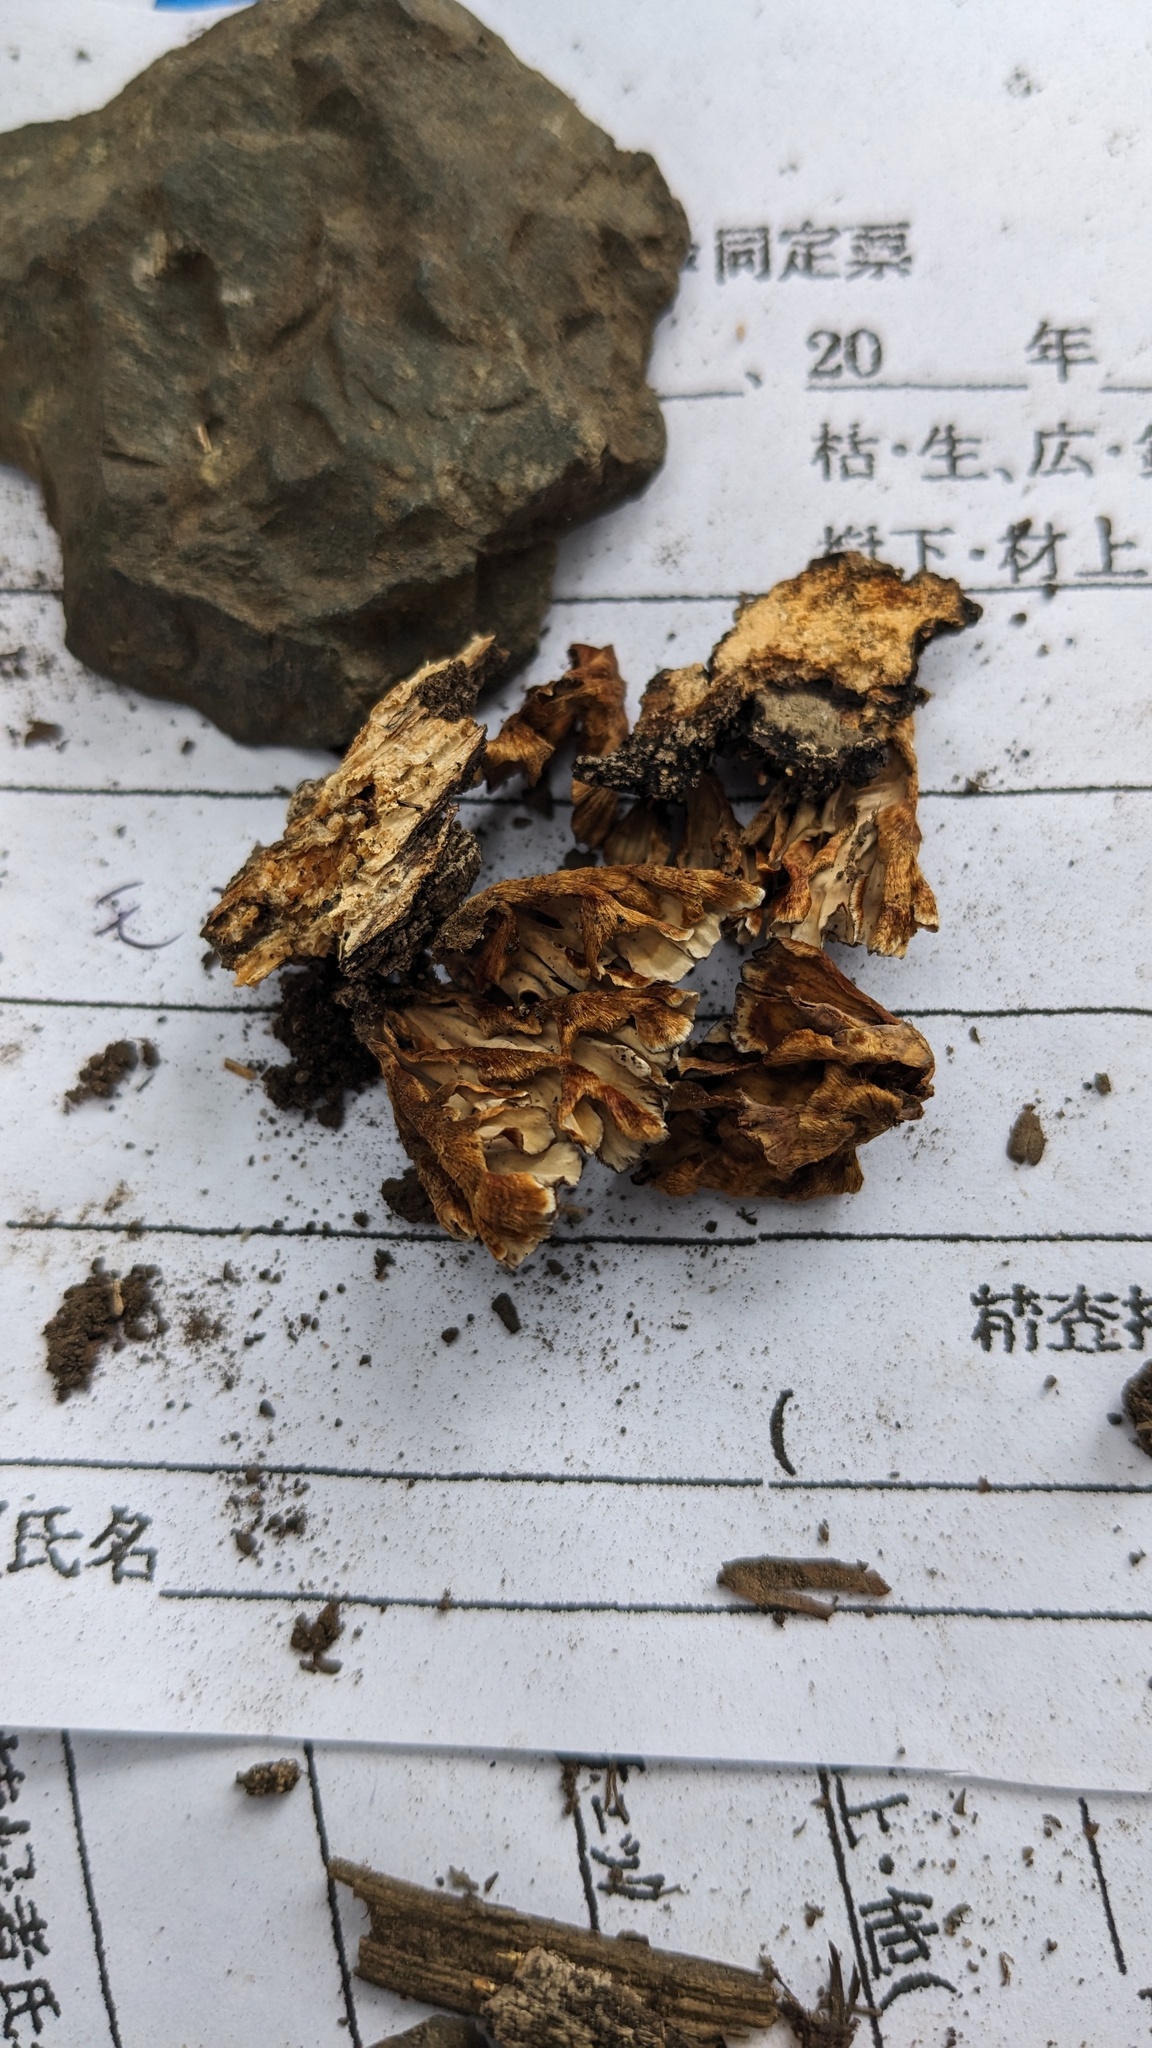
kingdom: Fungi
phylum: Basidiomycota
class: Agaricomycetes
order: Russulales
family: Stereaceae
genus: Xylobolus
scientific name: Xylobolus spectabilis
